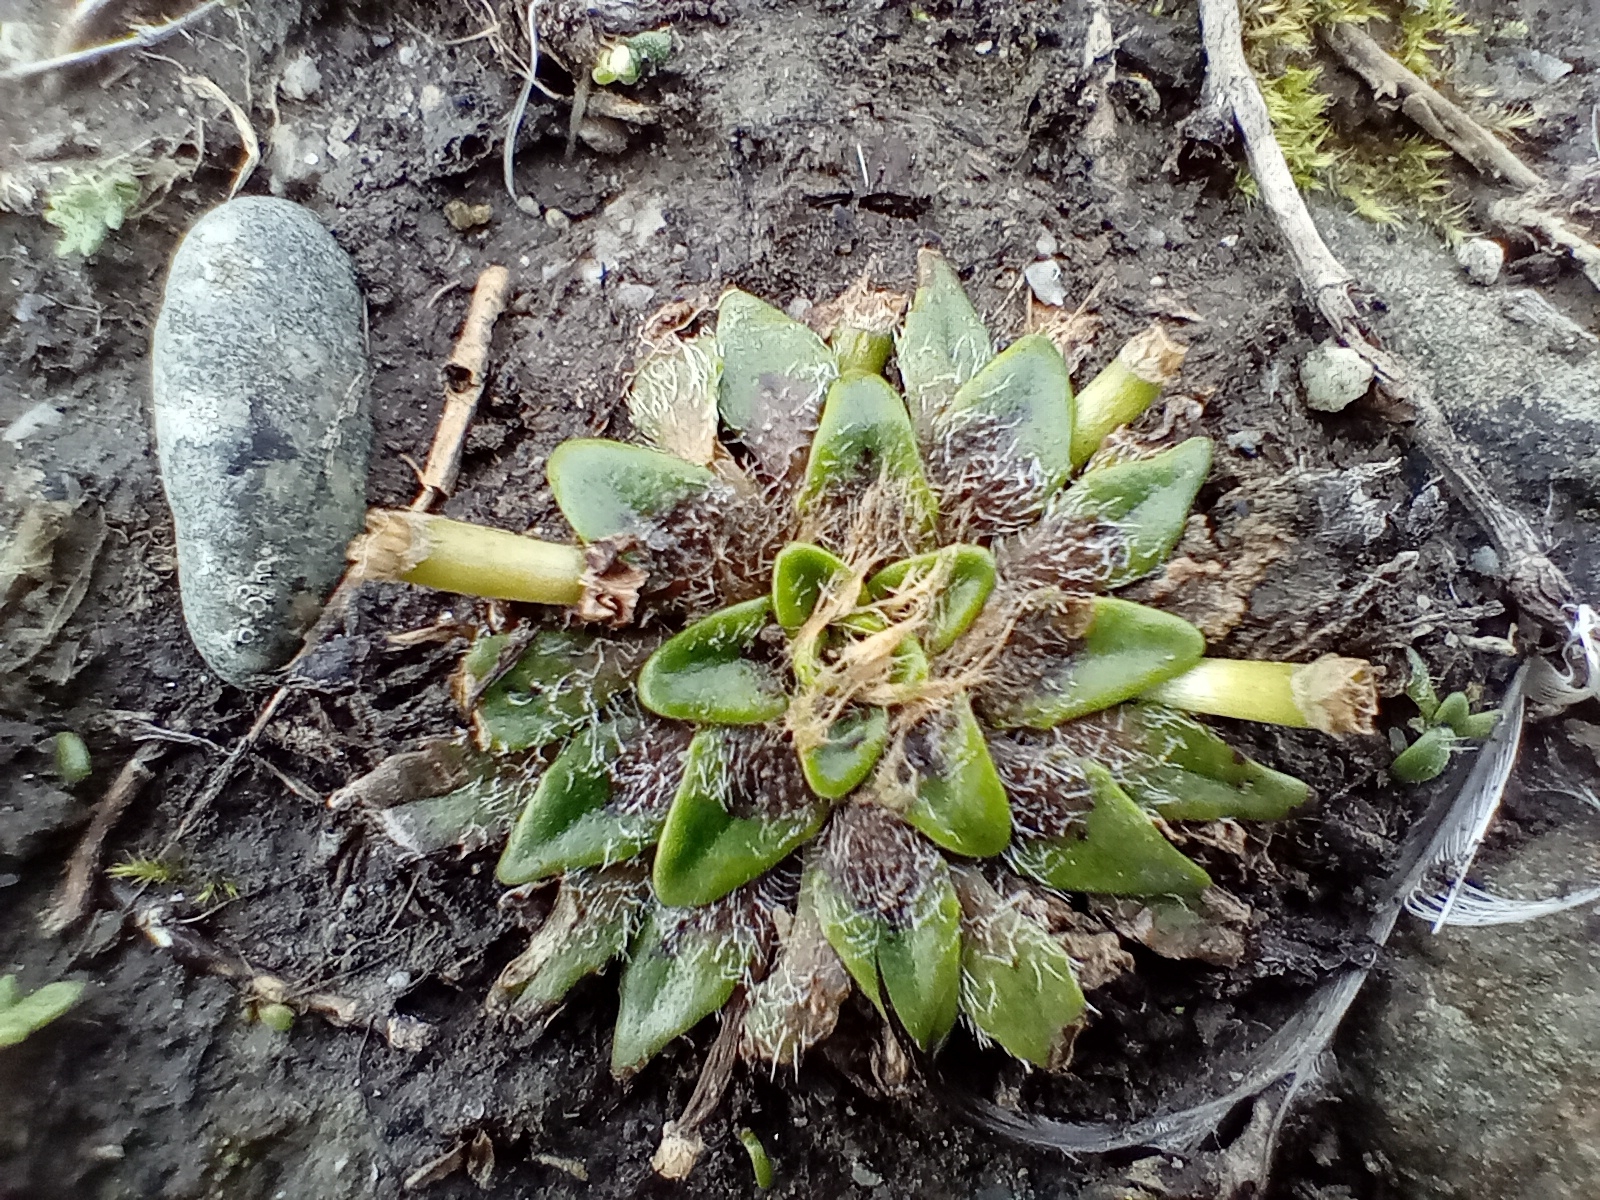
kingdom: Plantae
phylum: Tracheophyta
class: Magnoliopsida
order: Lamiales
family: Plantaginaceae
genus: Plantago
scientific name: Plantago triandra
